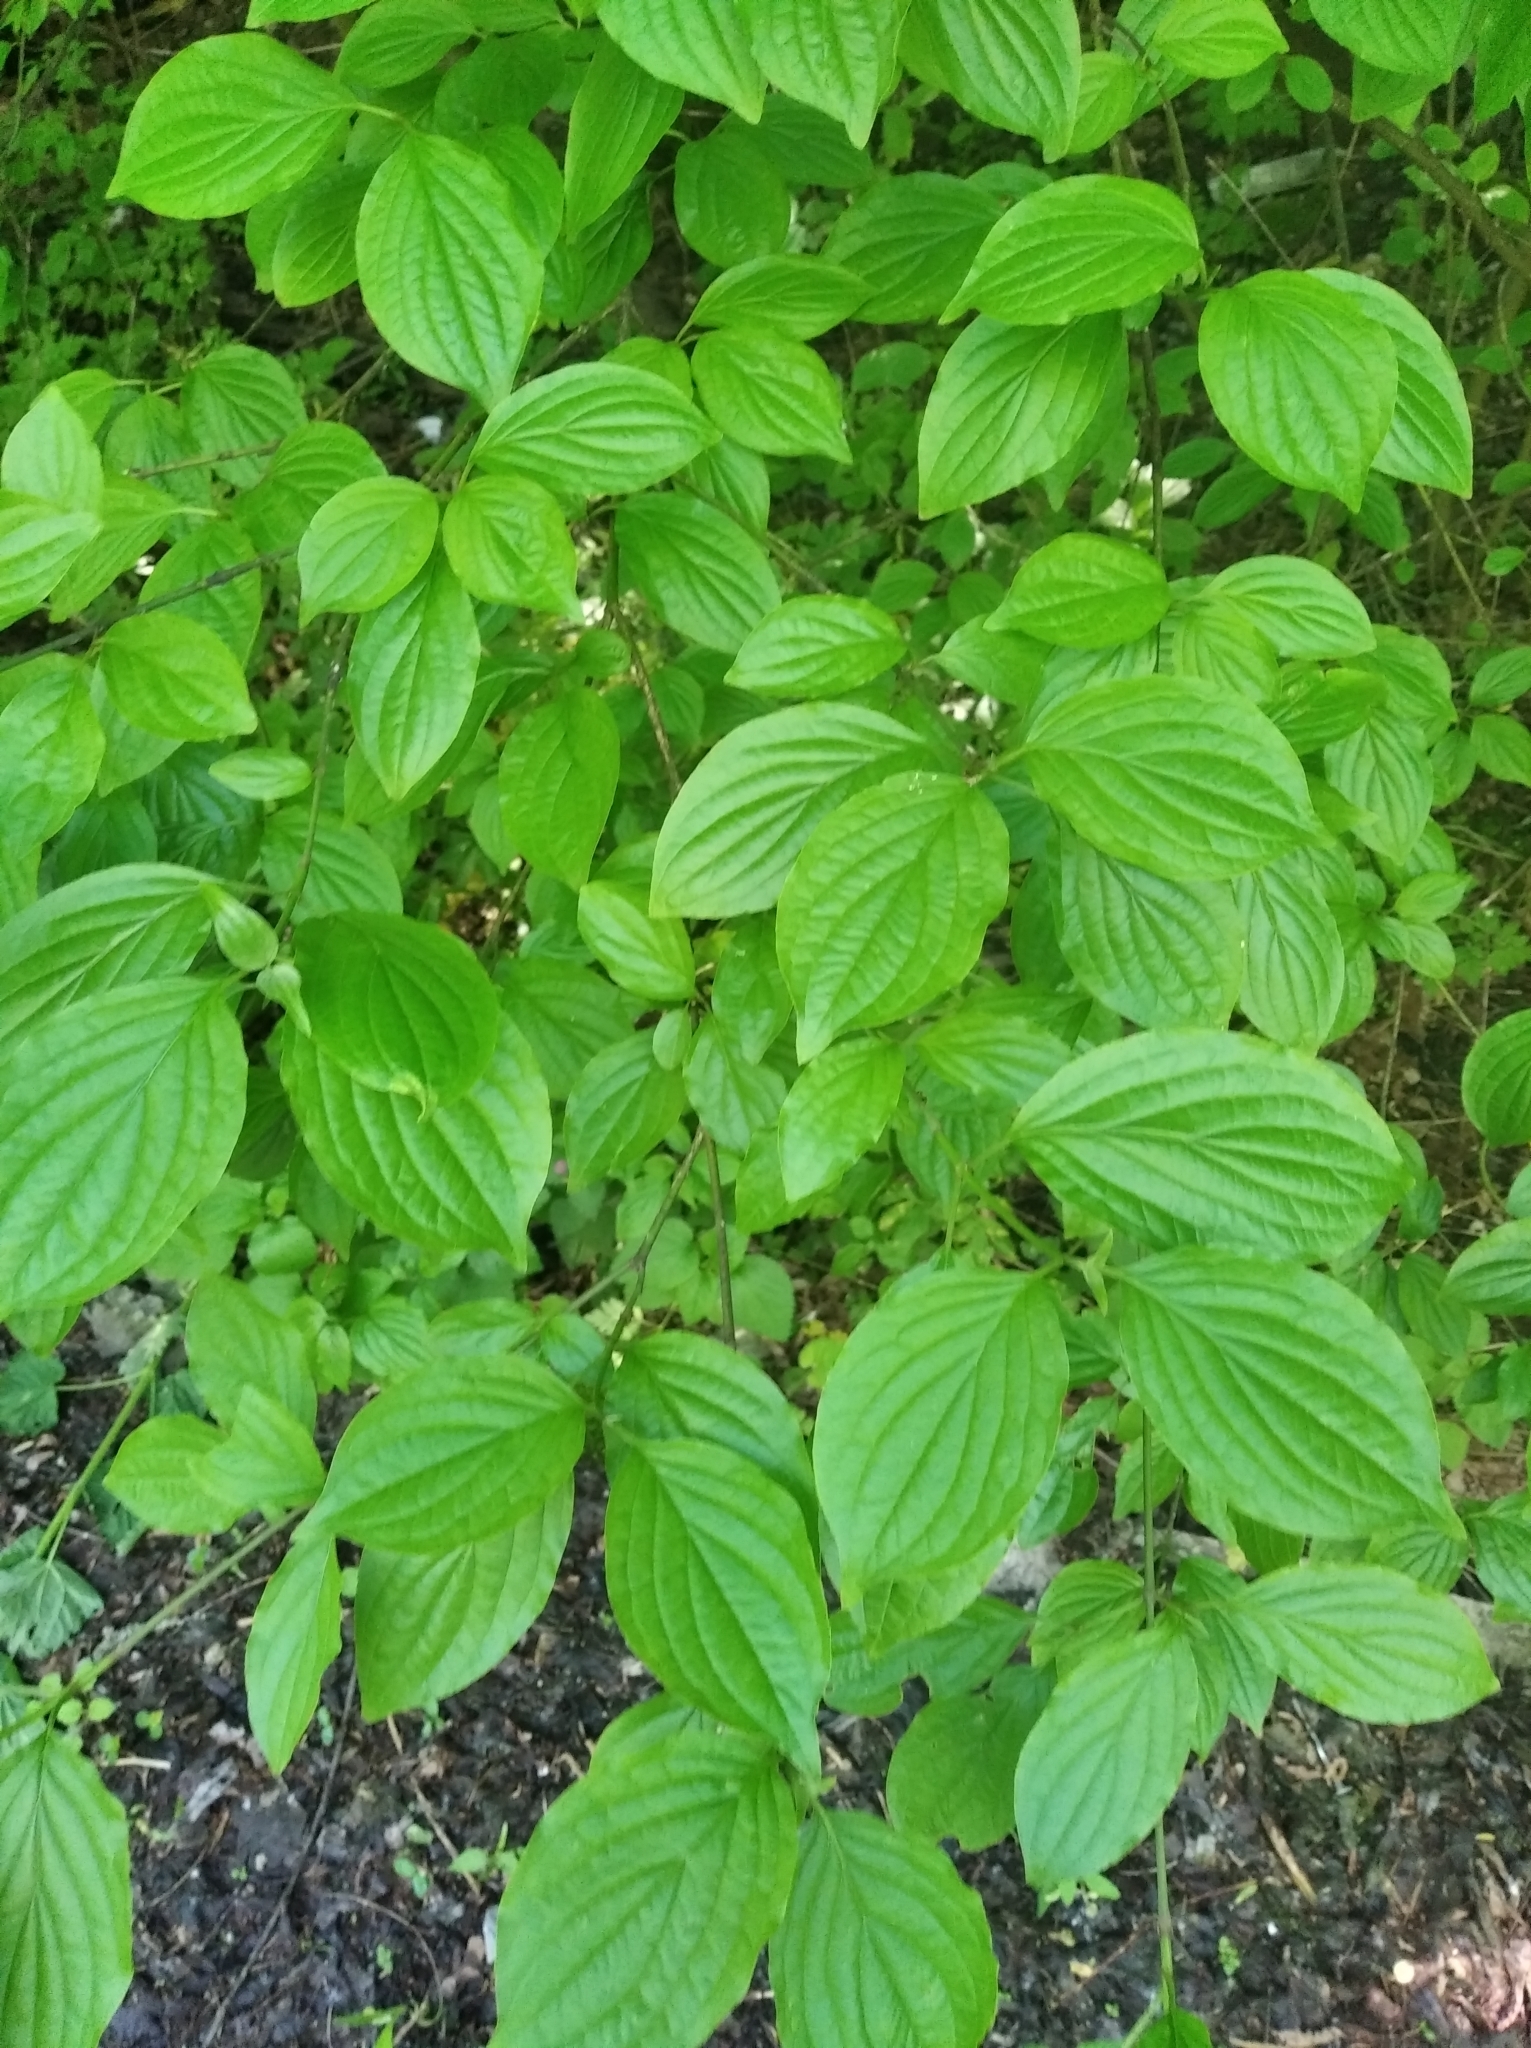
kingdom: Plantae
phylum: Tracheophyta
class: Magnoliopsida
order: Cornales
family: Cornaceae
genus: Cornus
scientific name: Cornus sanguinea
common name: Dogwood
